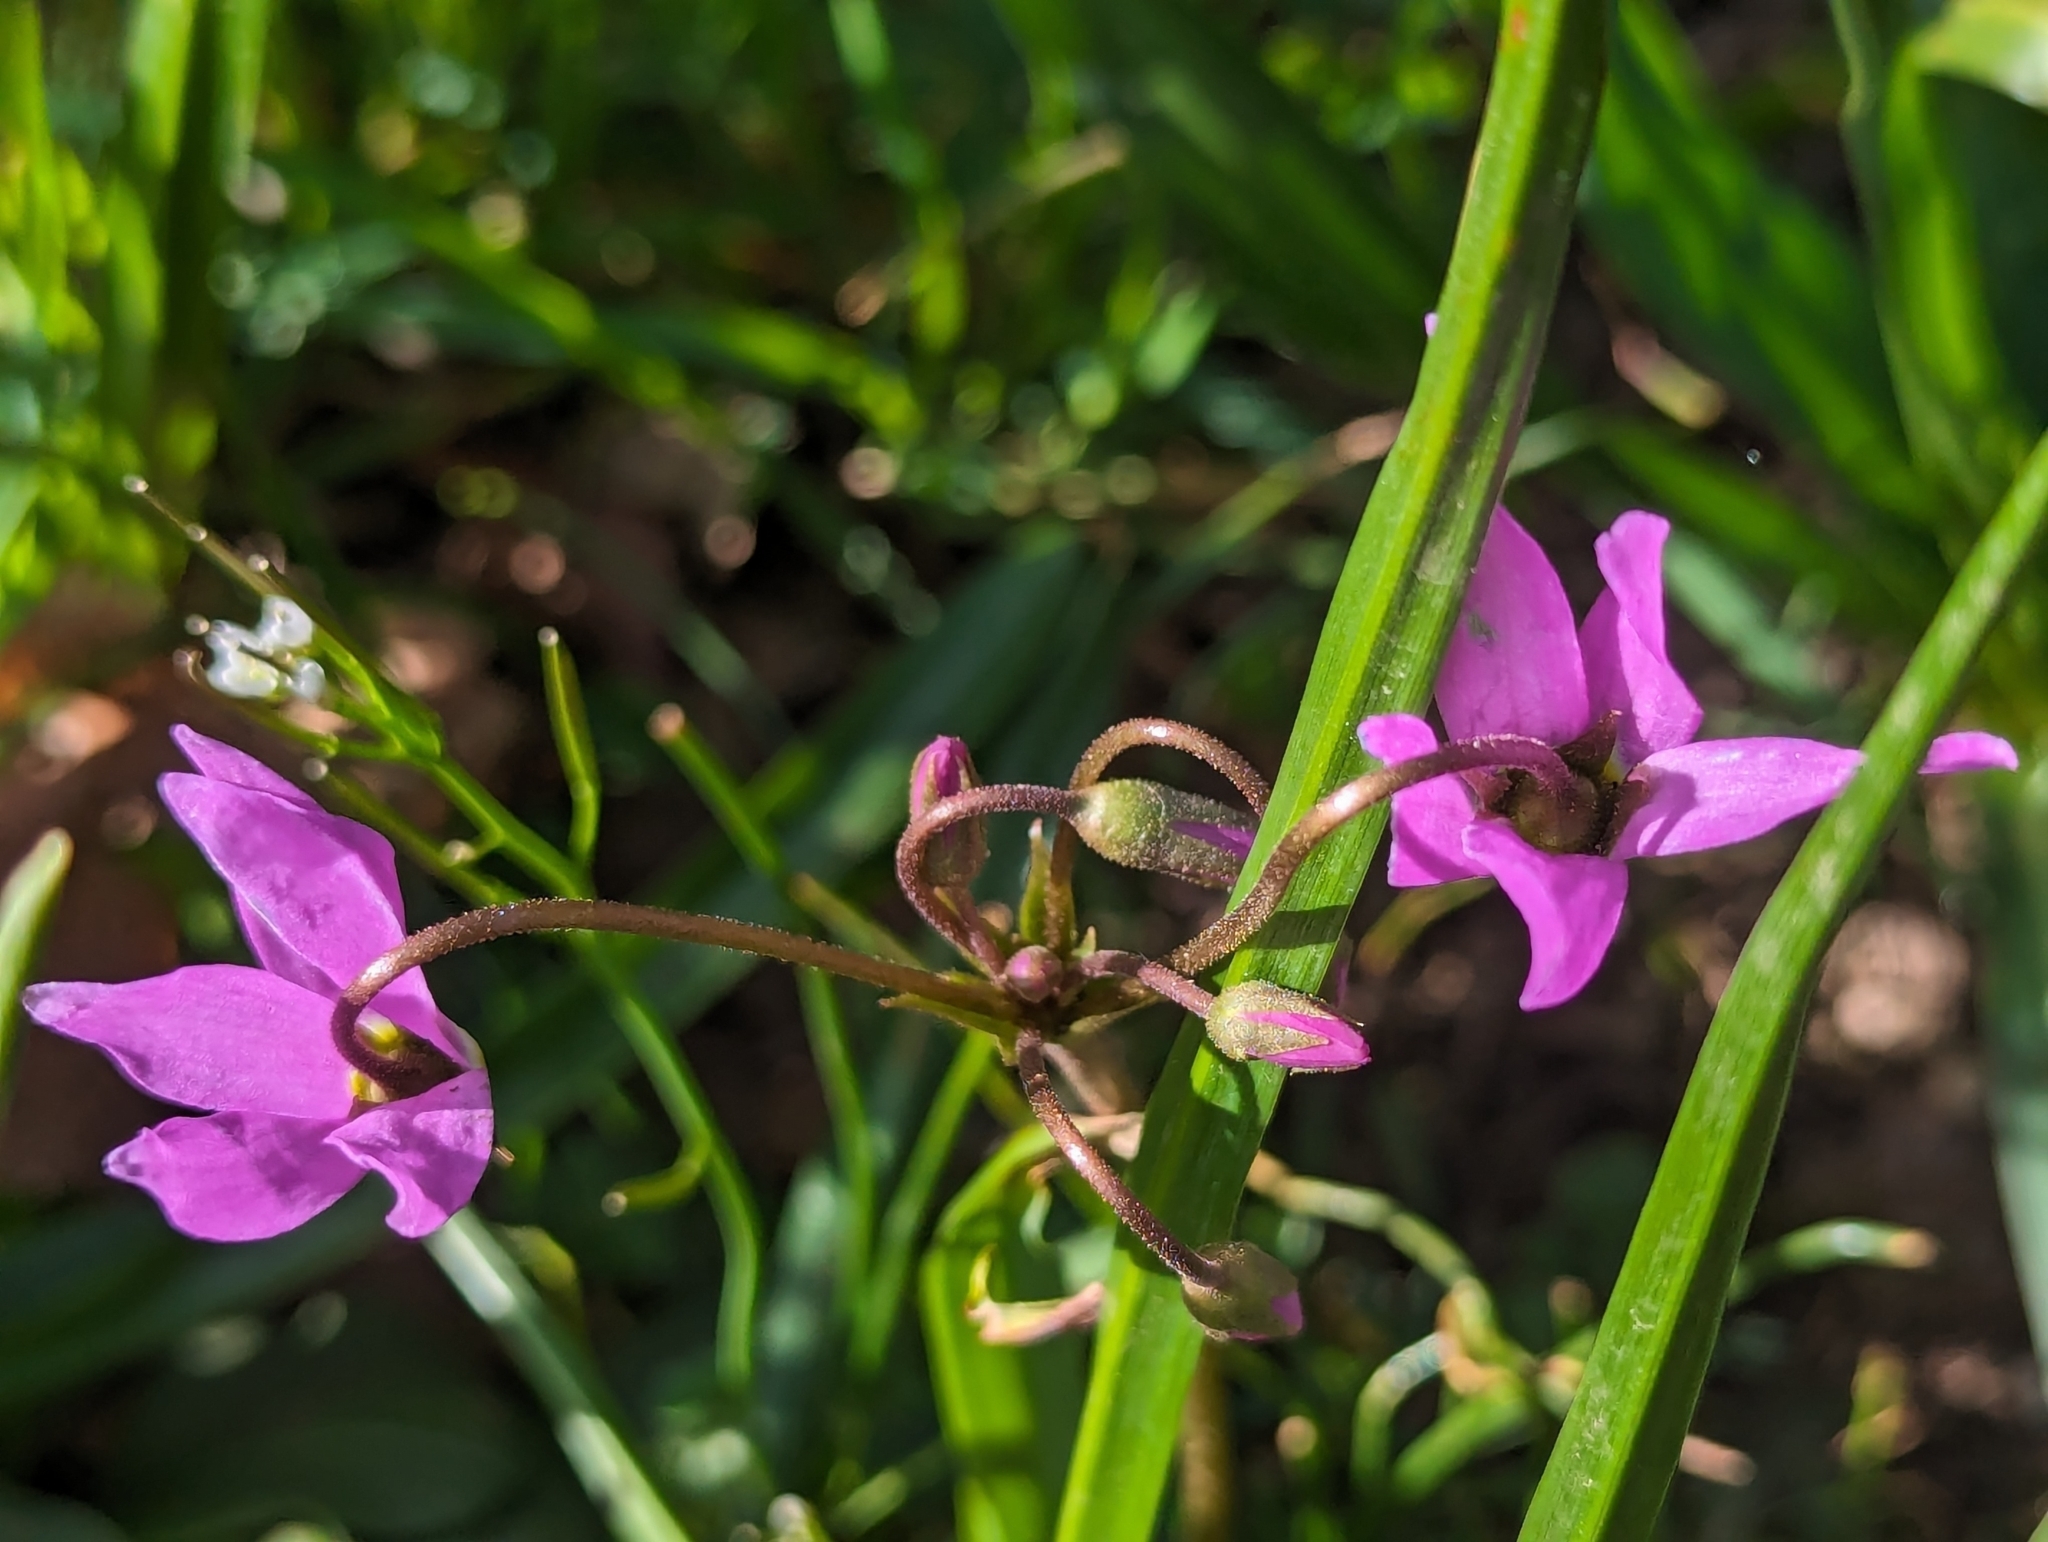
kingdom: Plantae
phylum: Tracheophyta
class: Magnoliopsida
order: Ericales
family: Primulaceae
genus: Dodecatheon
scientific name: Dodecatheon hendersonii
